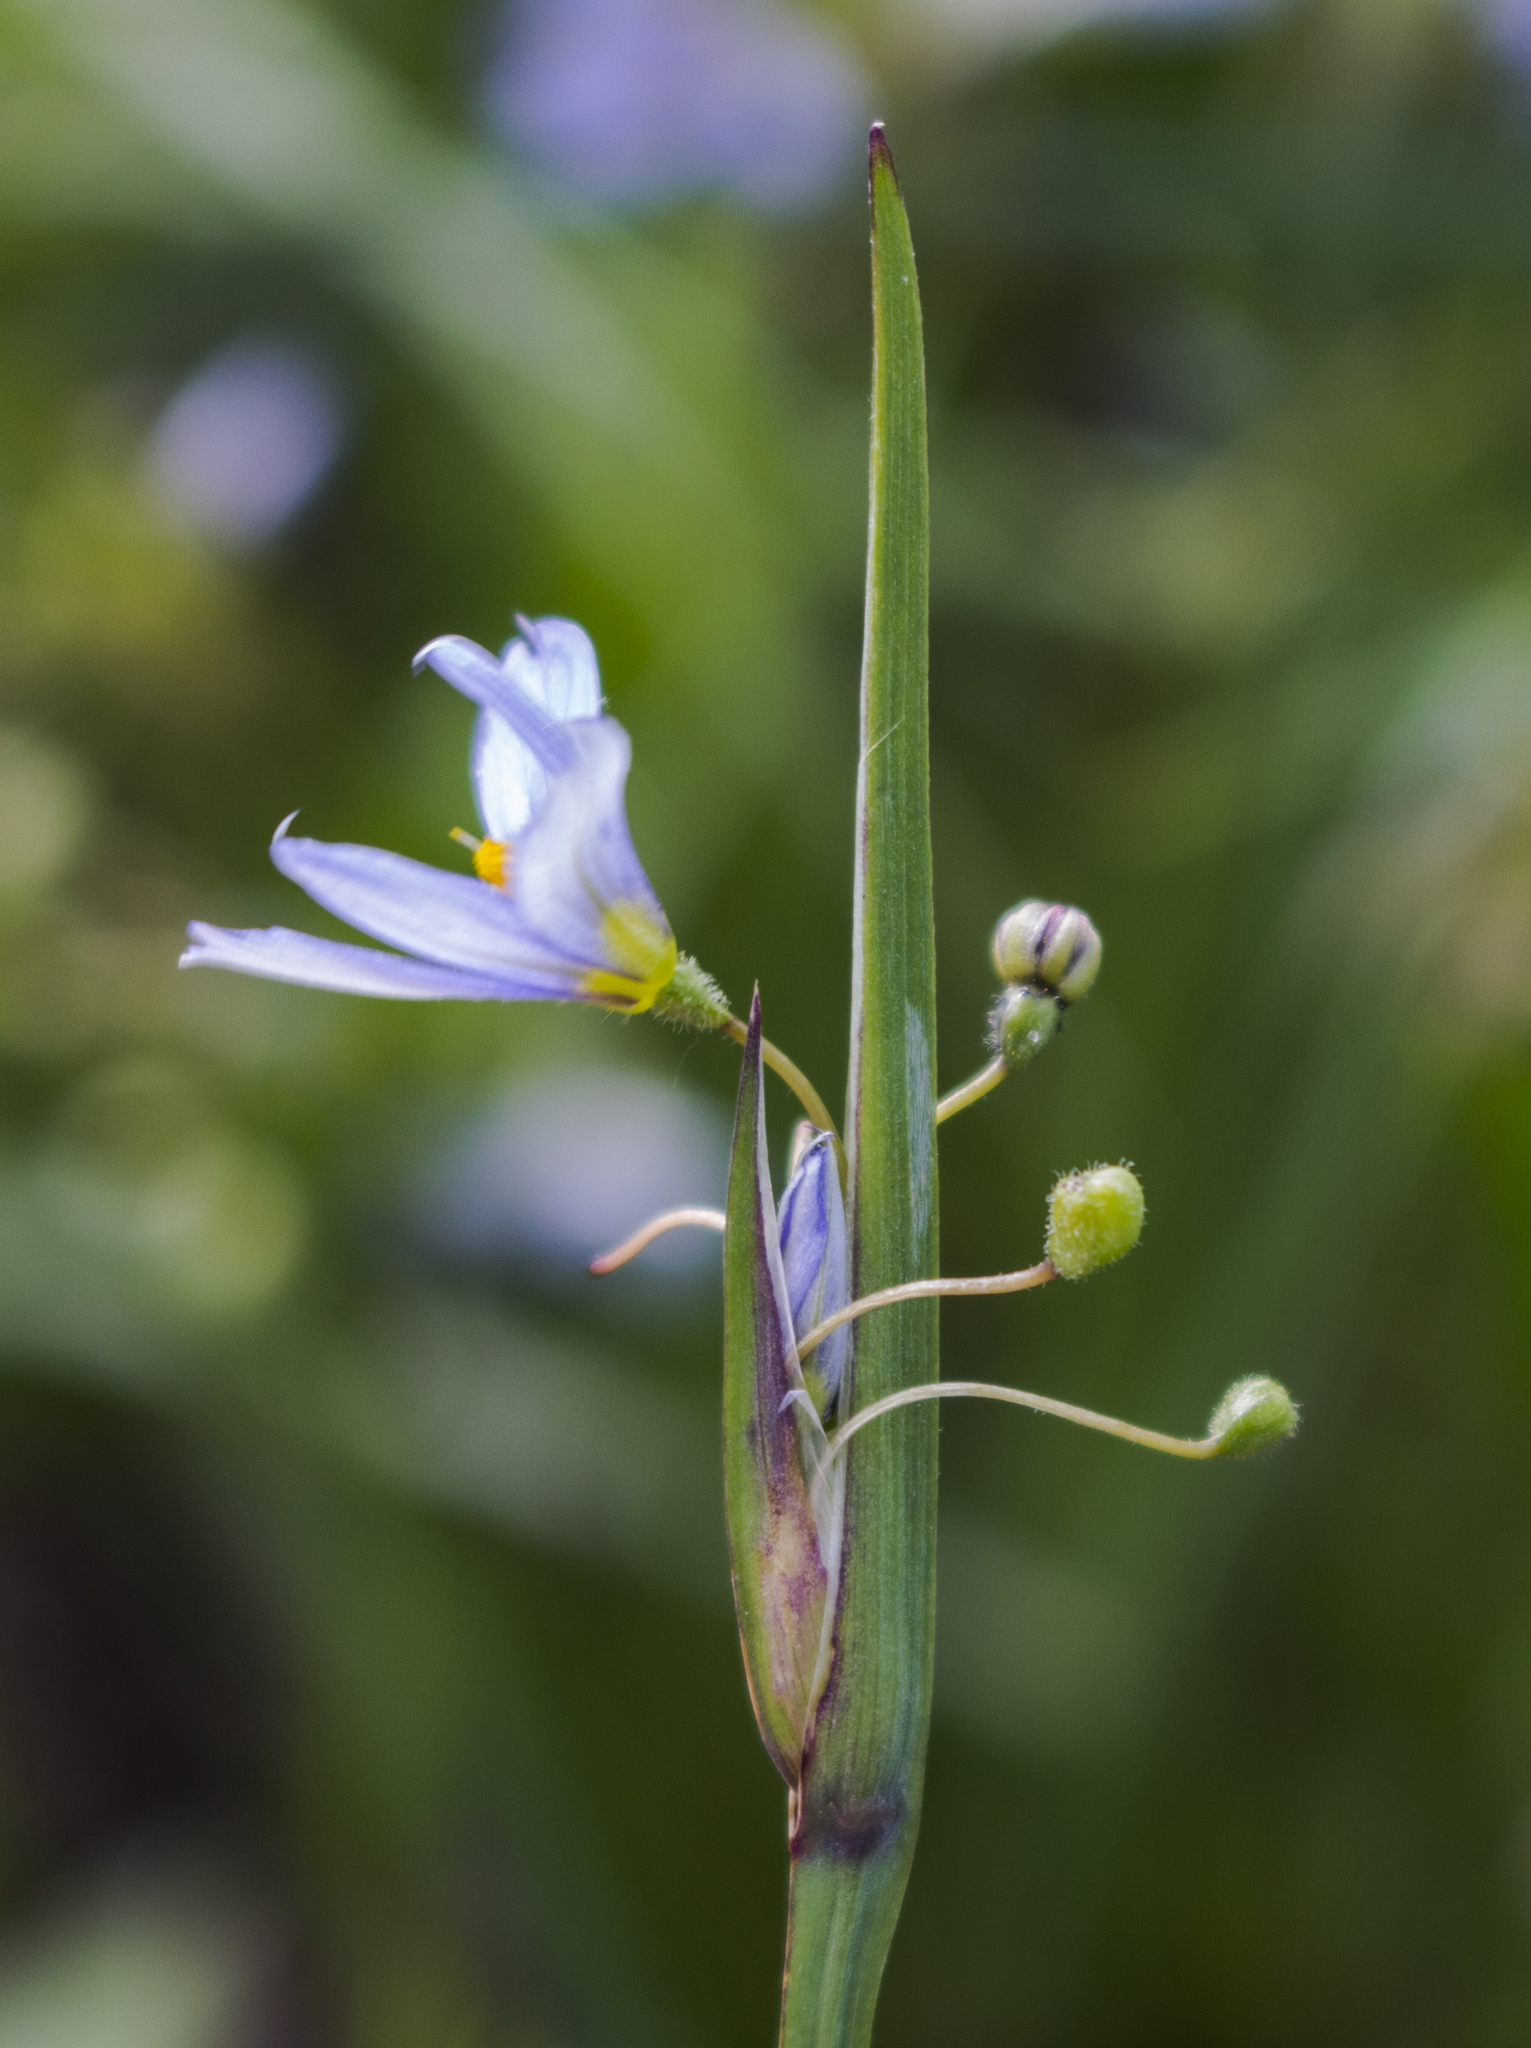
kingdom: Plantae
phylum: Tracheophyta
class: Liliopsida
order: Asparagales
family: Iridaceae
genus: Sisyrinchium
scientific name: Sisyrinchium campestre
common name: Prairie blue-eyed-grass
